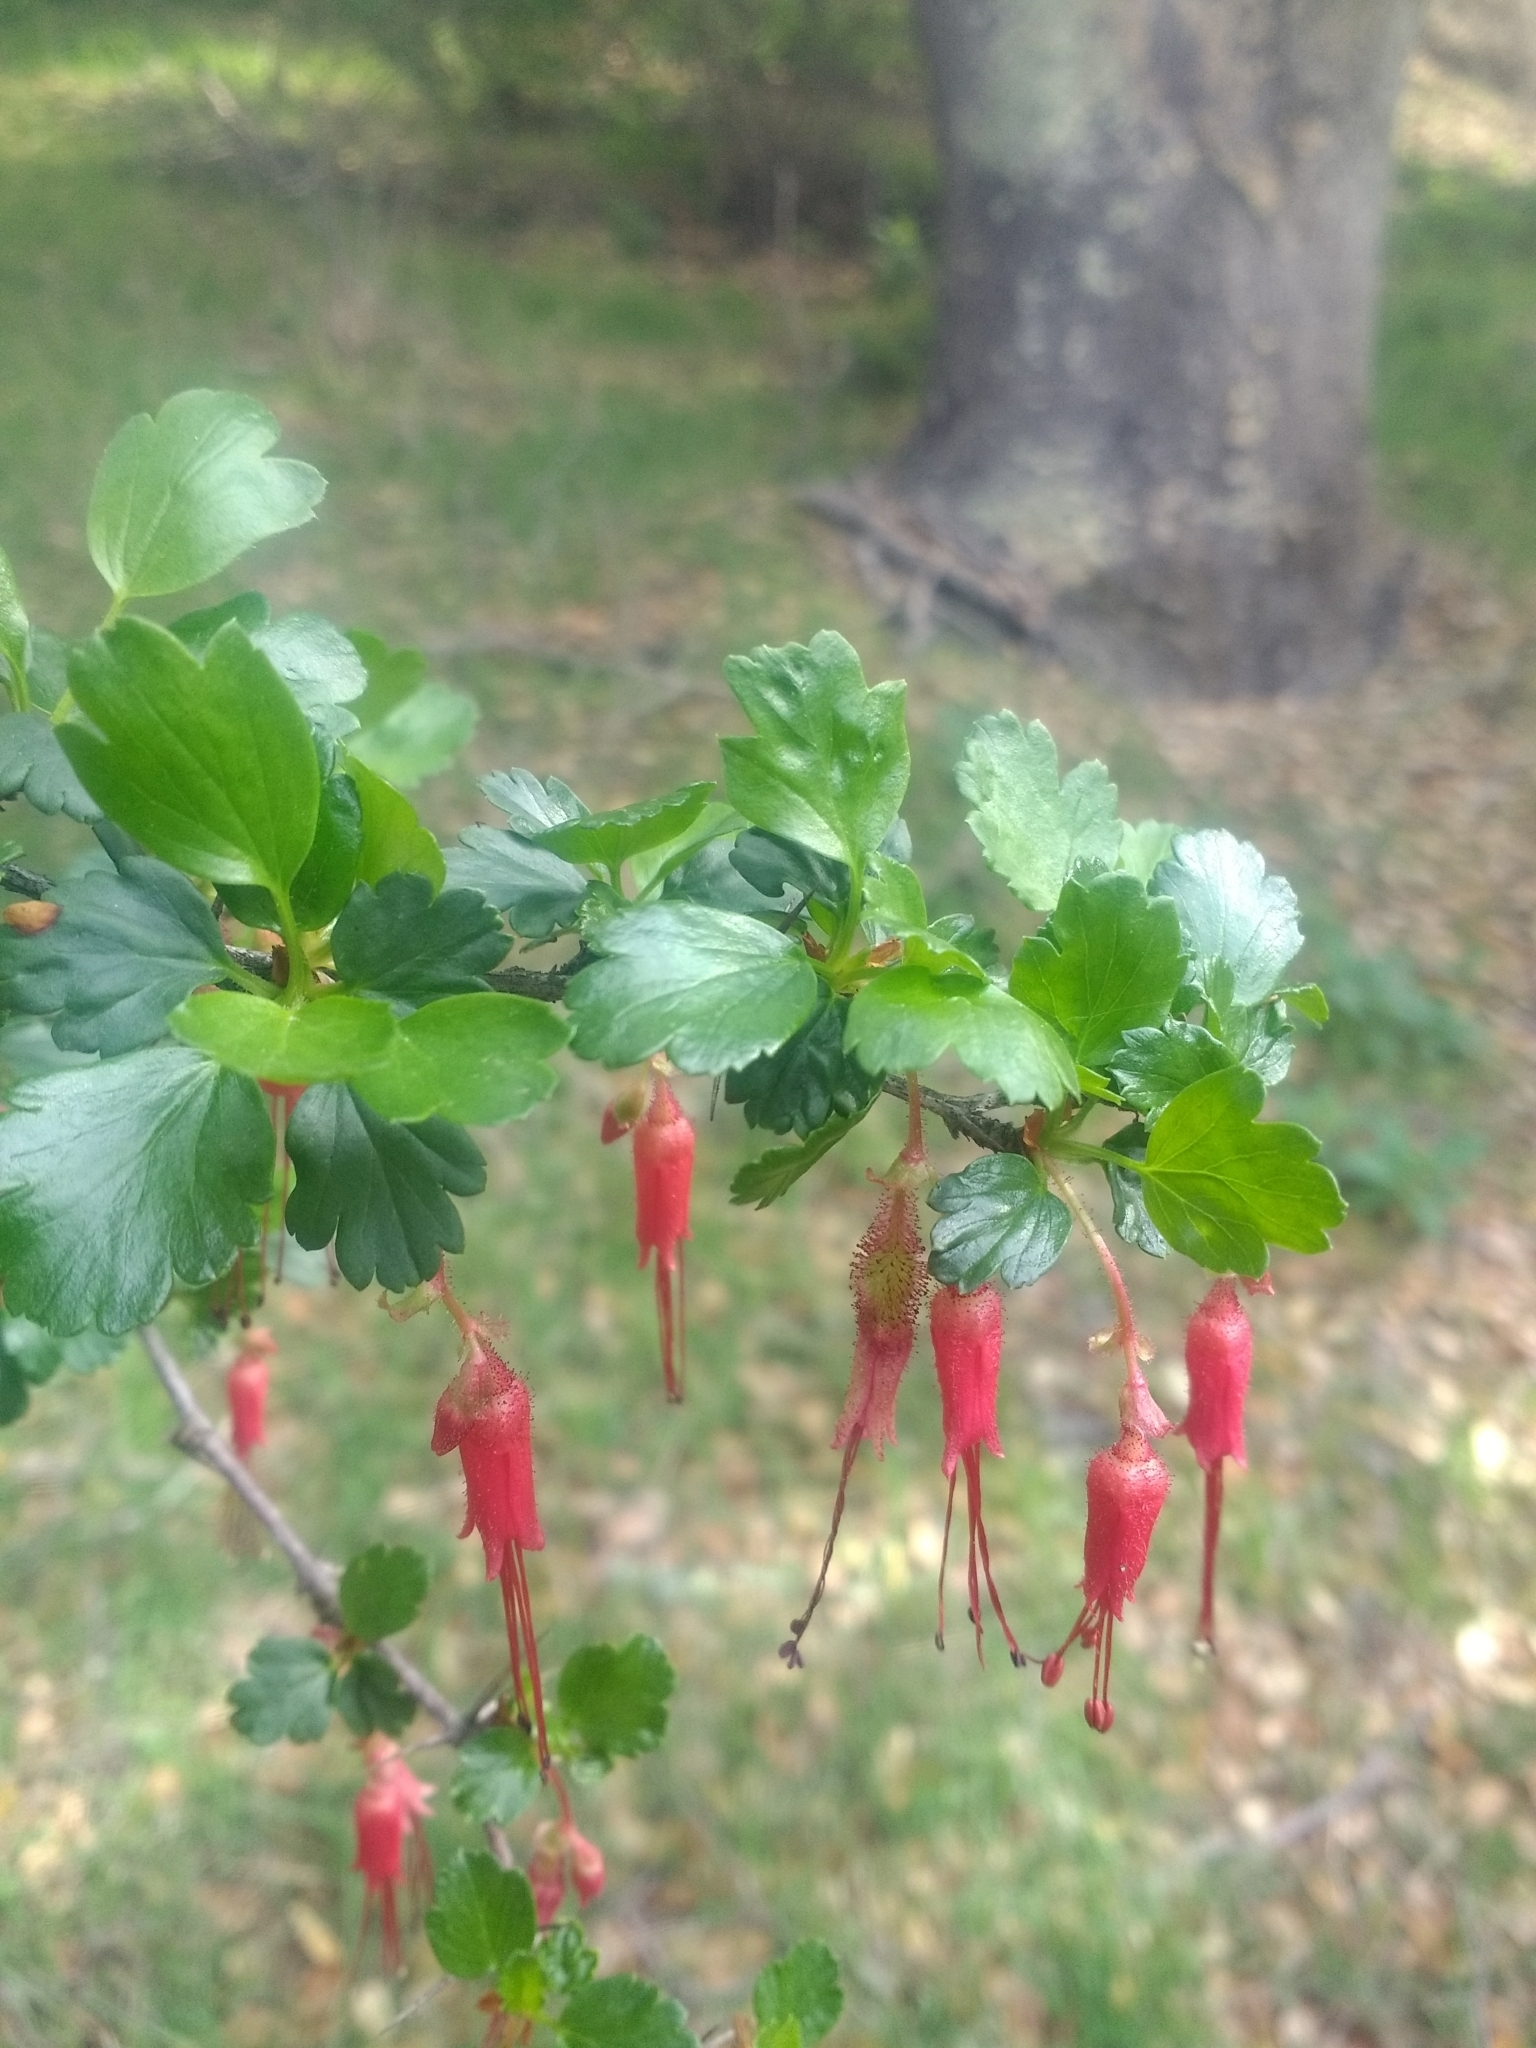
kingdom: Plantae
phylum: Tracheophyta
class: Magnoliopsida
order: Saxifragales
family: Grossulariaceae
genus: Ribes
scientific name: Ribes speciosum
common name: Fuchsia-flower gooseberry
